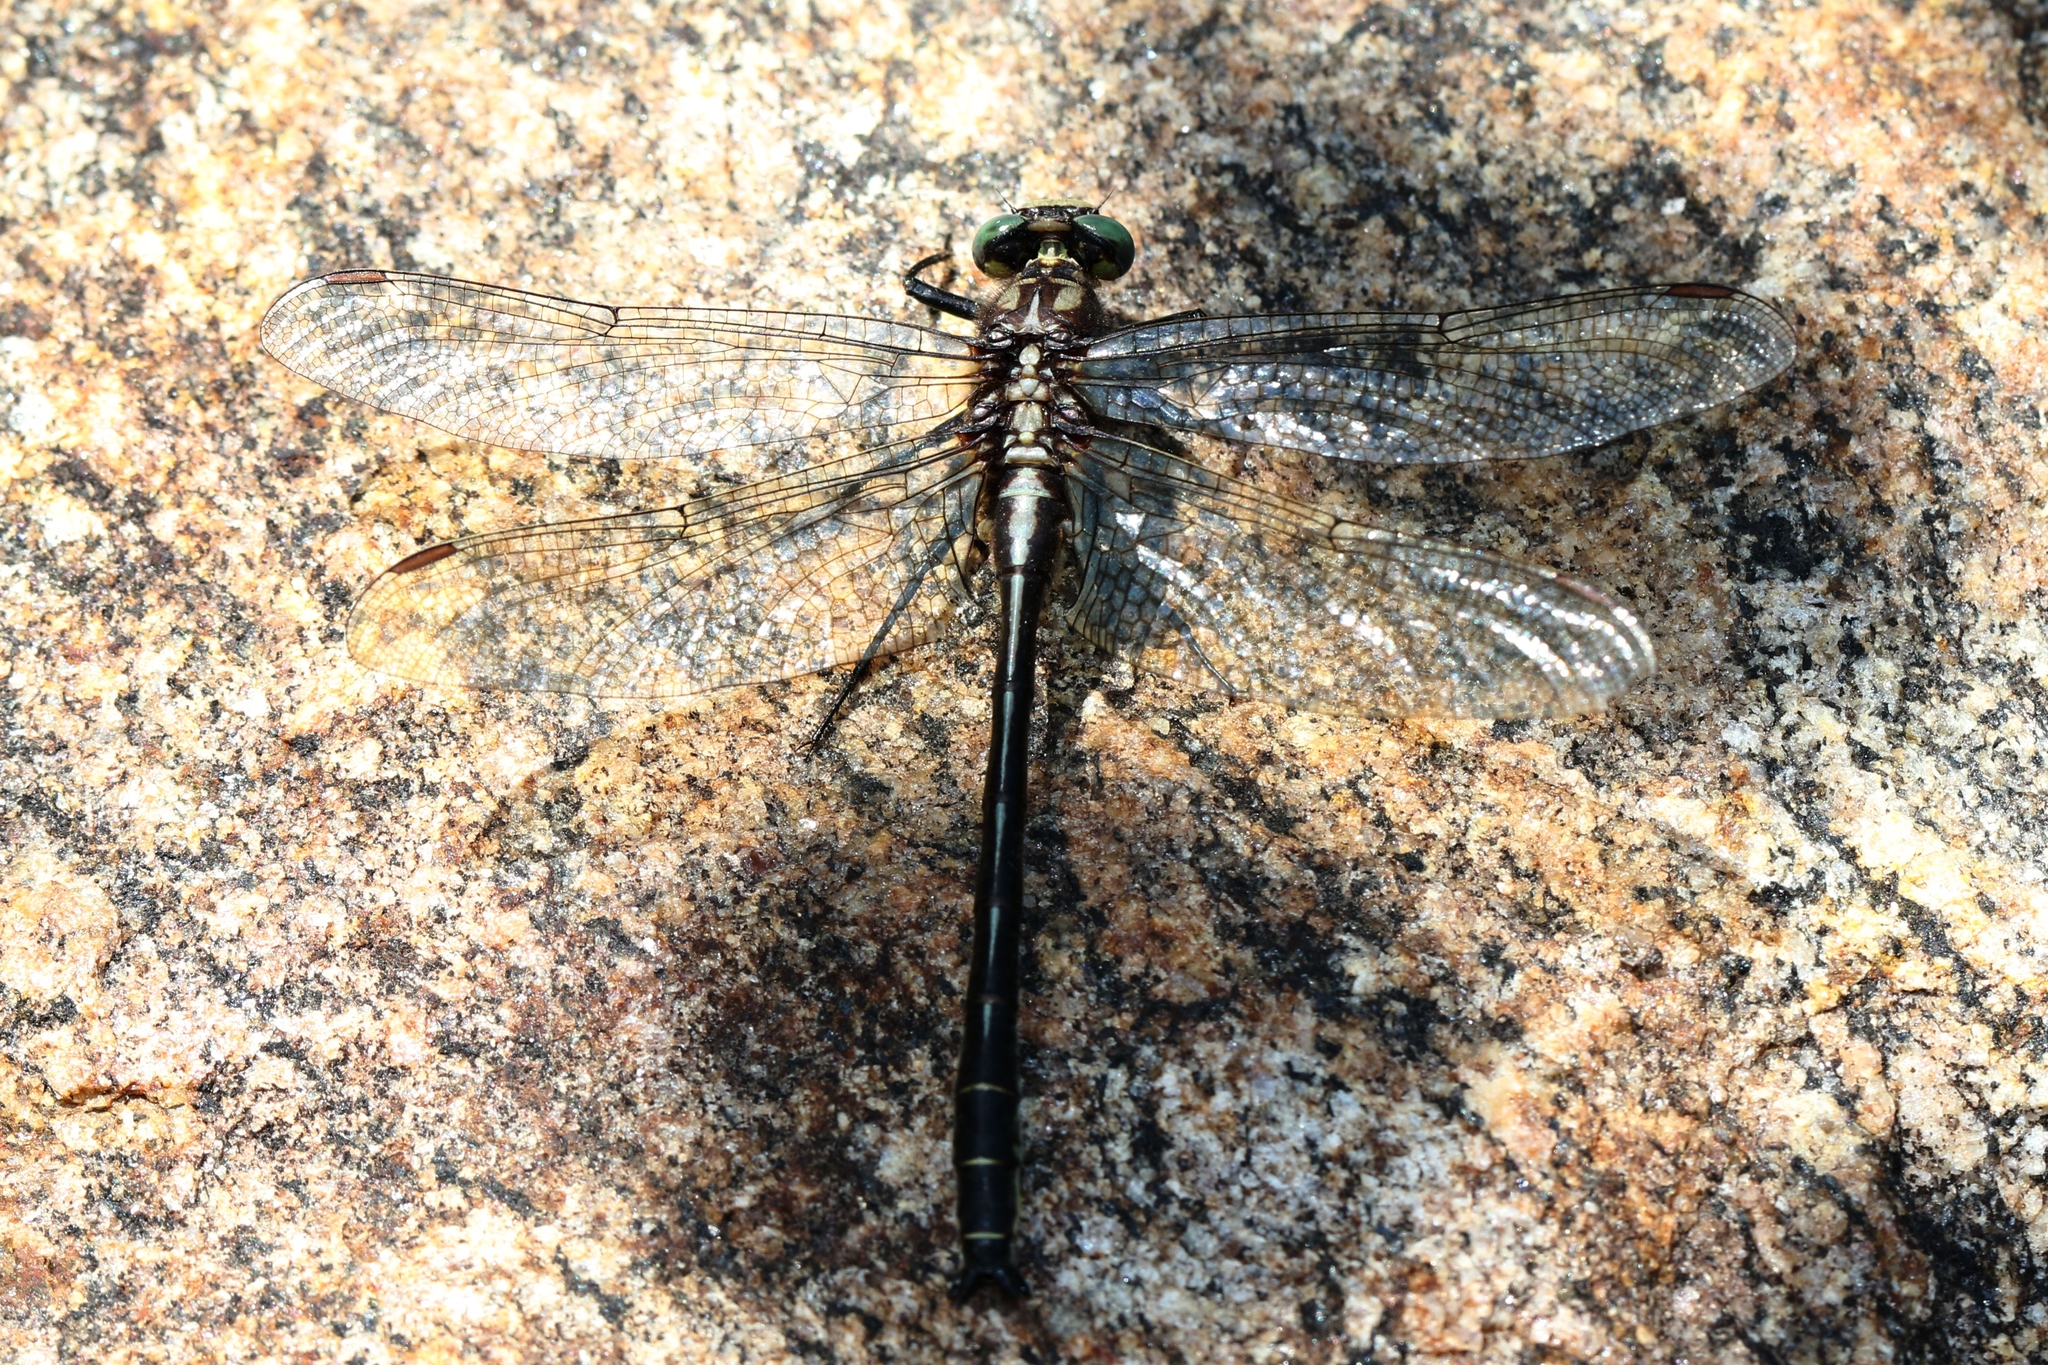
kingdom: Animalia
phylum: Arthropoda
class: Insecta
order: Odonata
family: Gomphidae
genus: Phanogomphus
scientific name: Phanogomphus descriptus
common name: Harpoon clubtail
